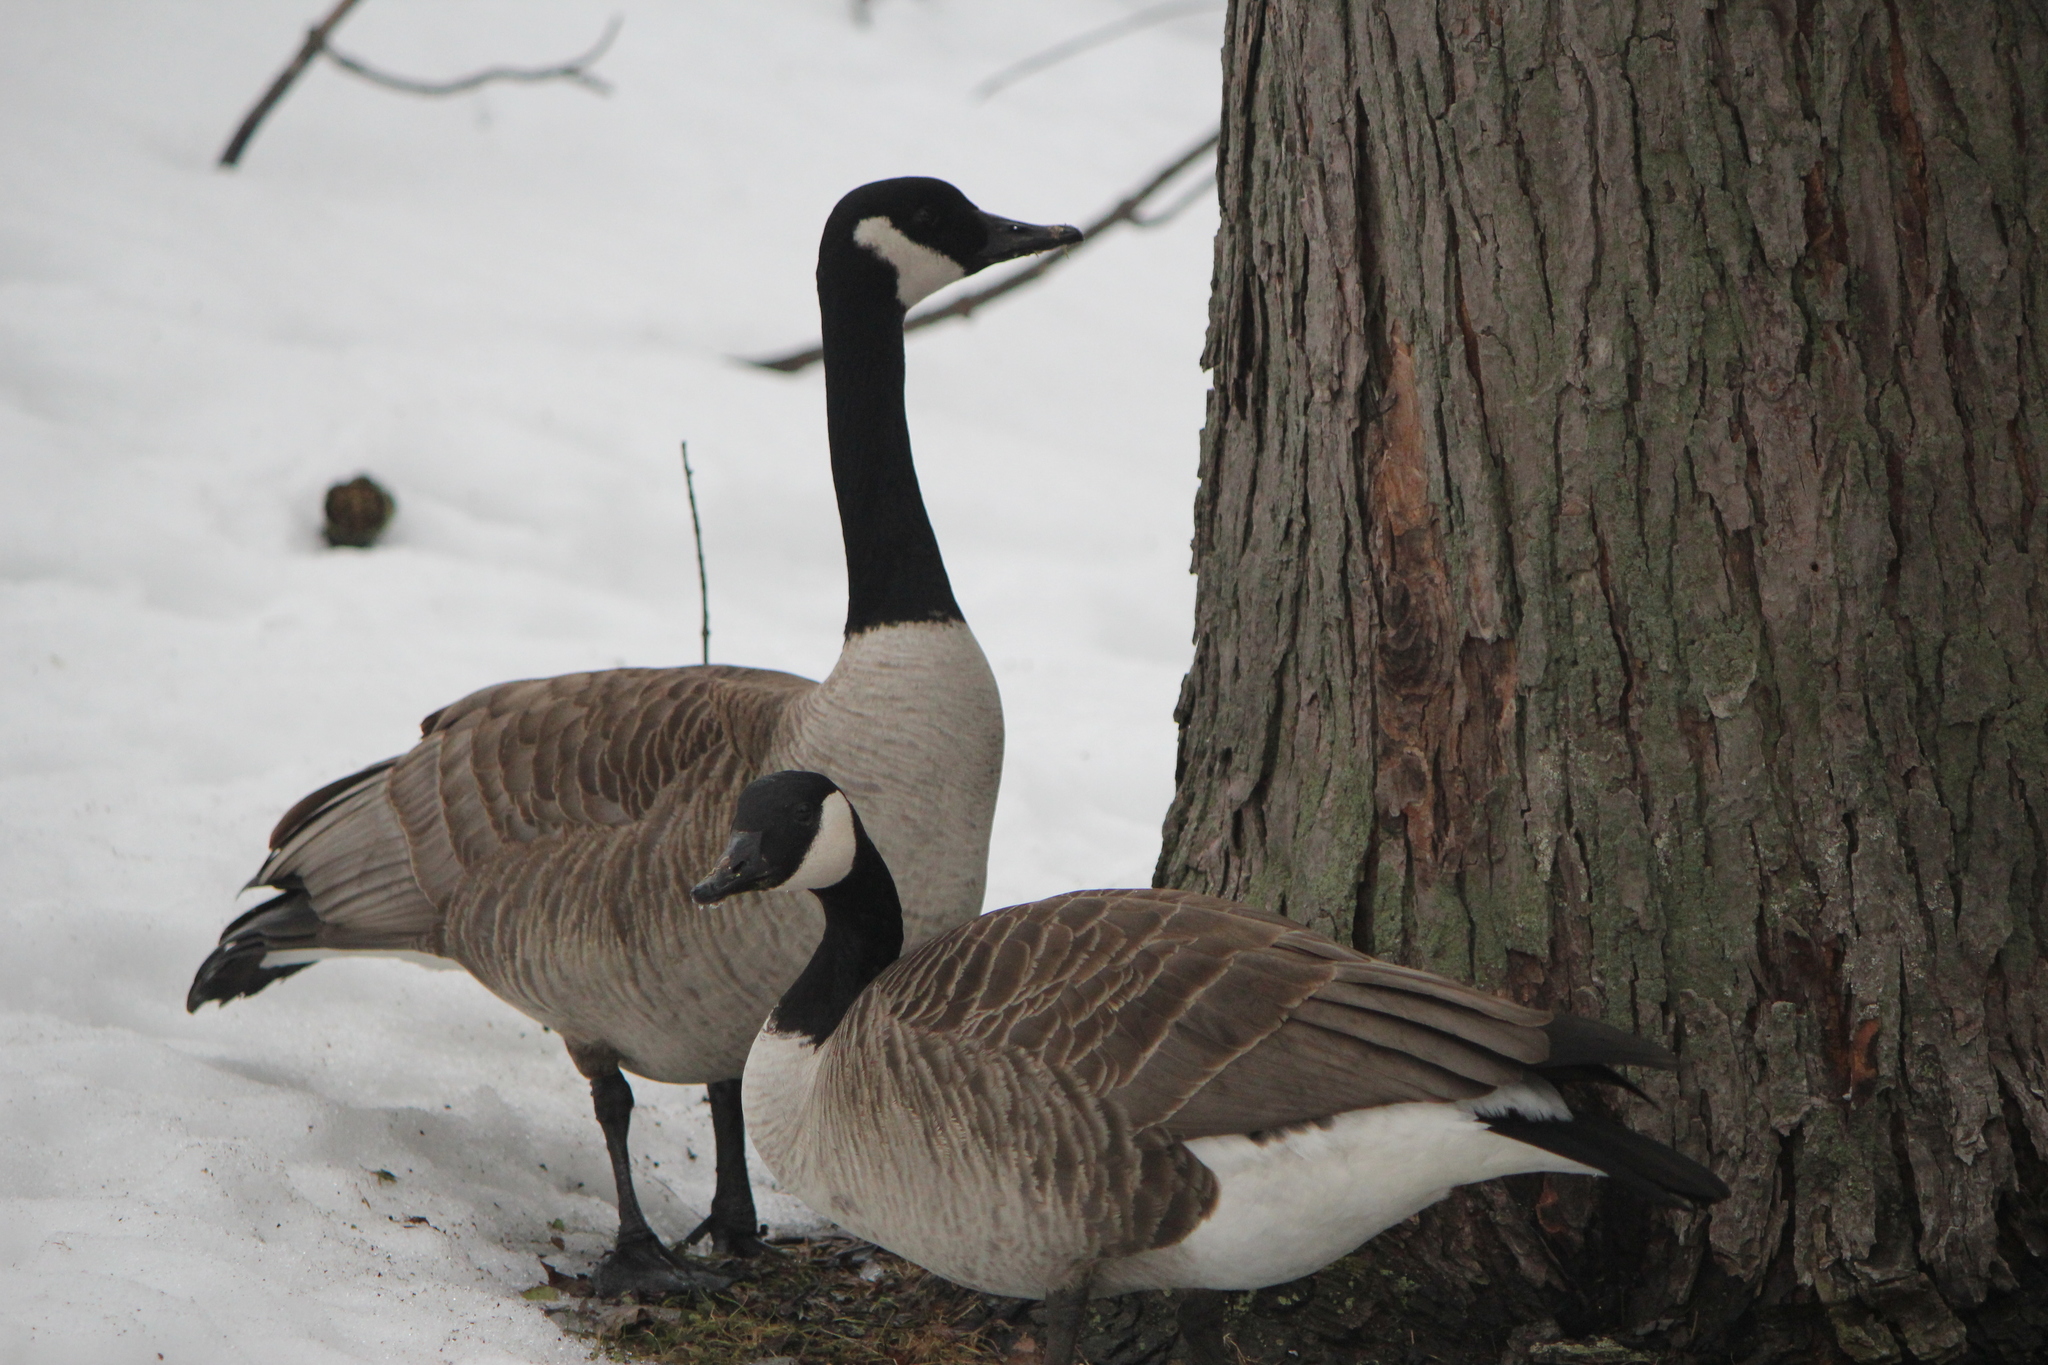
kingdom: Animalia
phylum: Chordata
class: Aves
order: Anseriformes
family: Anatidae
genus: Branta
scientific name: Branta canadensis
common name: Canada goose
